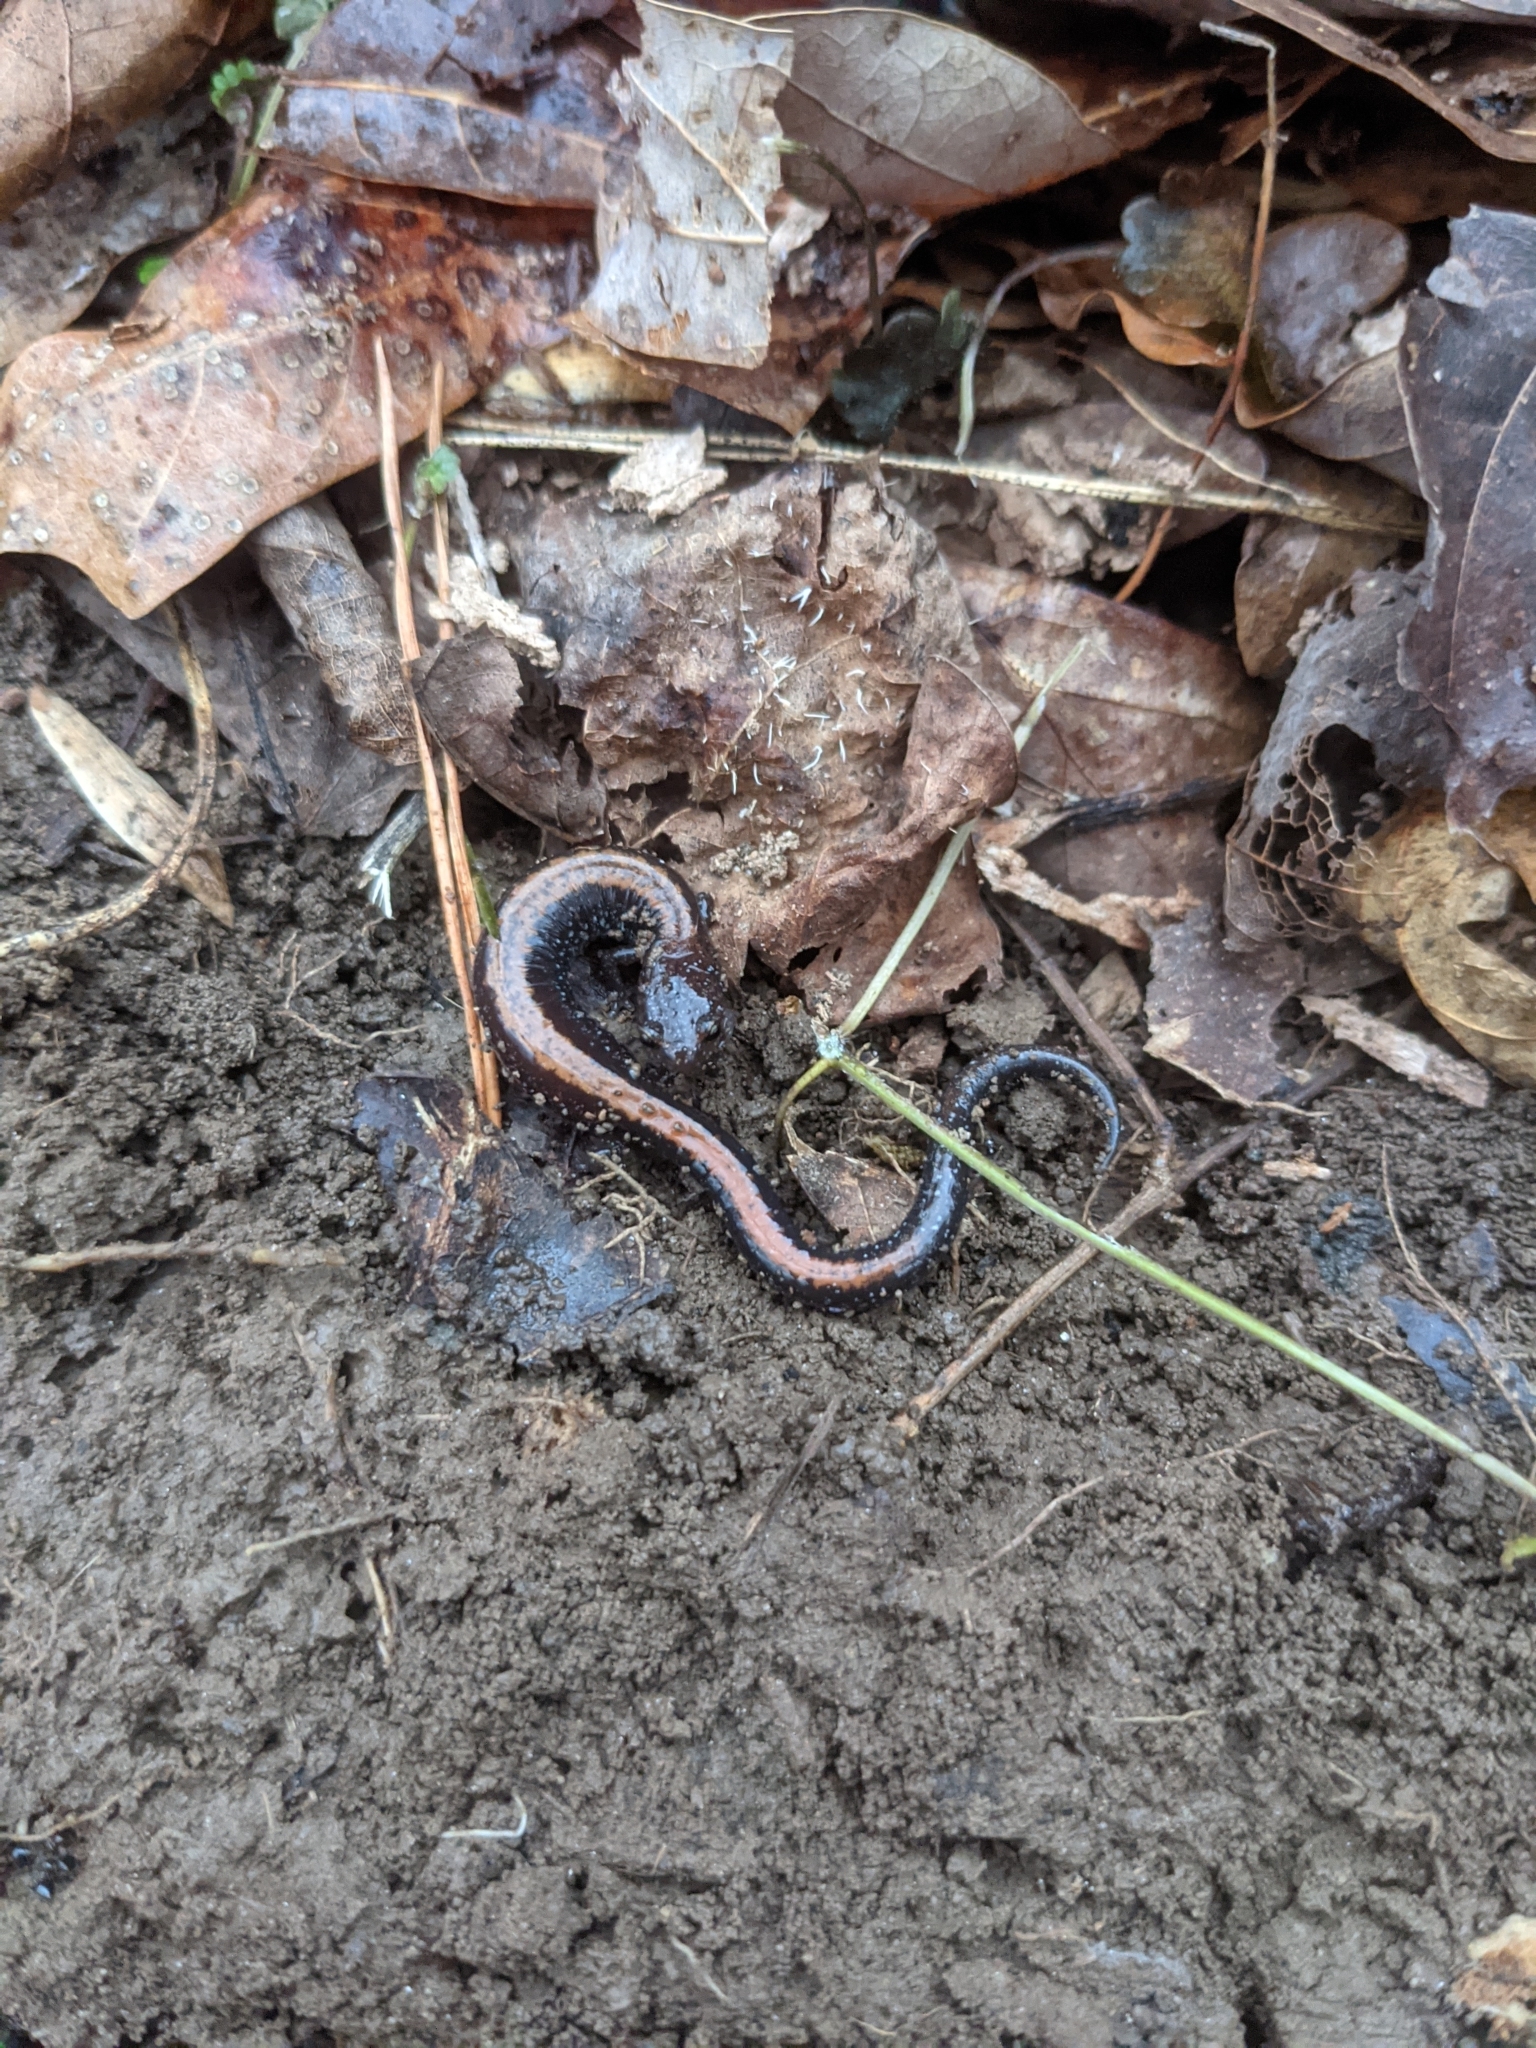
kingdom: Animalia
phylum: Chordata
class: Amphibia
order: Caudata
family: Plethodontidae
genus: Plethodon
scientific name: Plethodon cinereus
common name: Redback salamander
